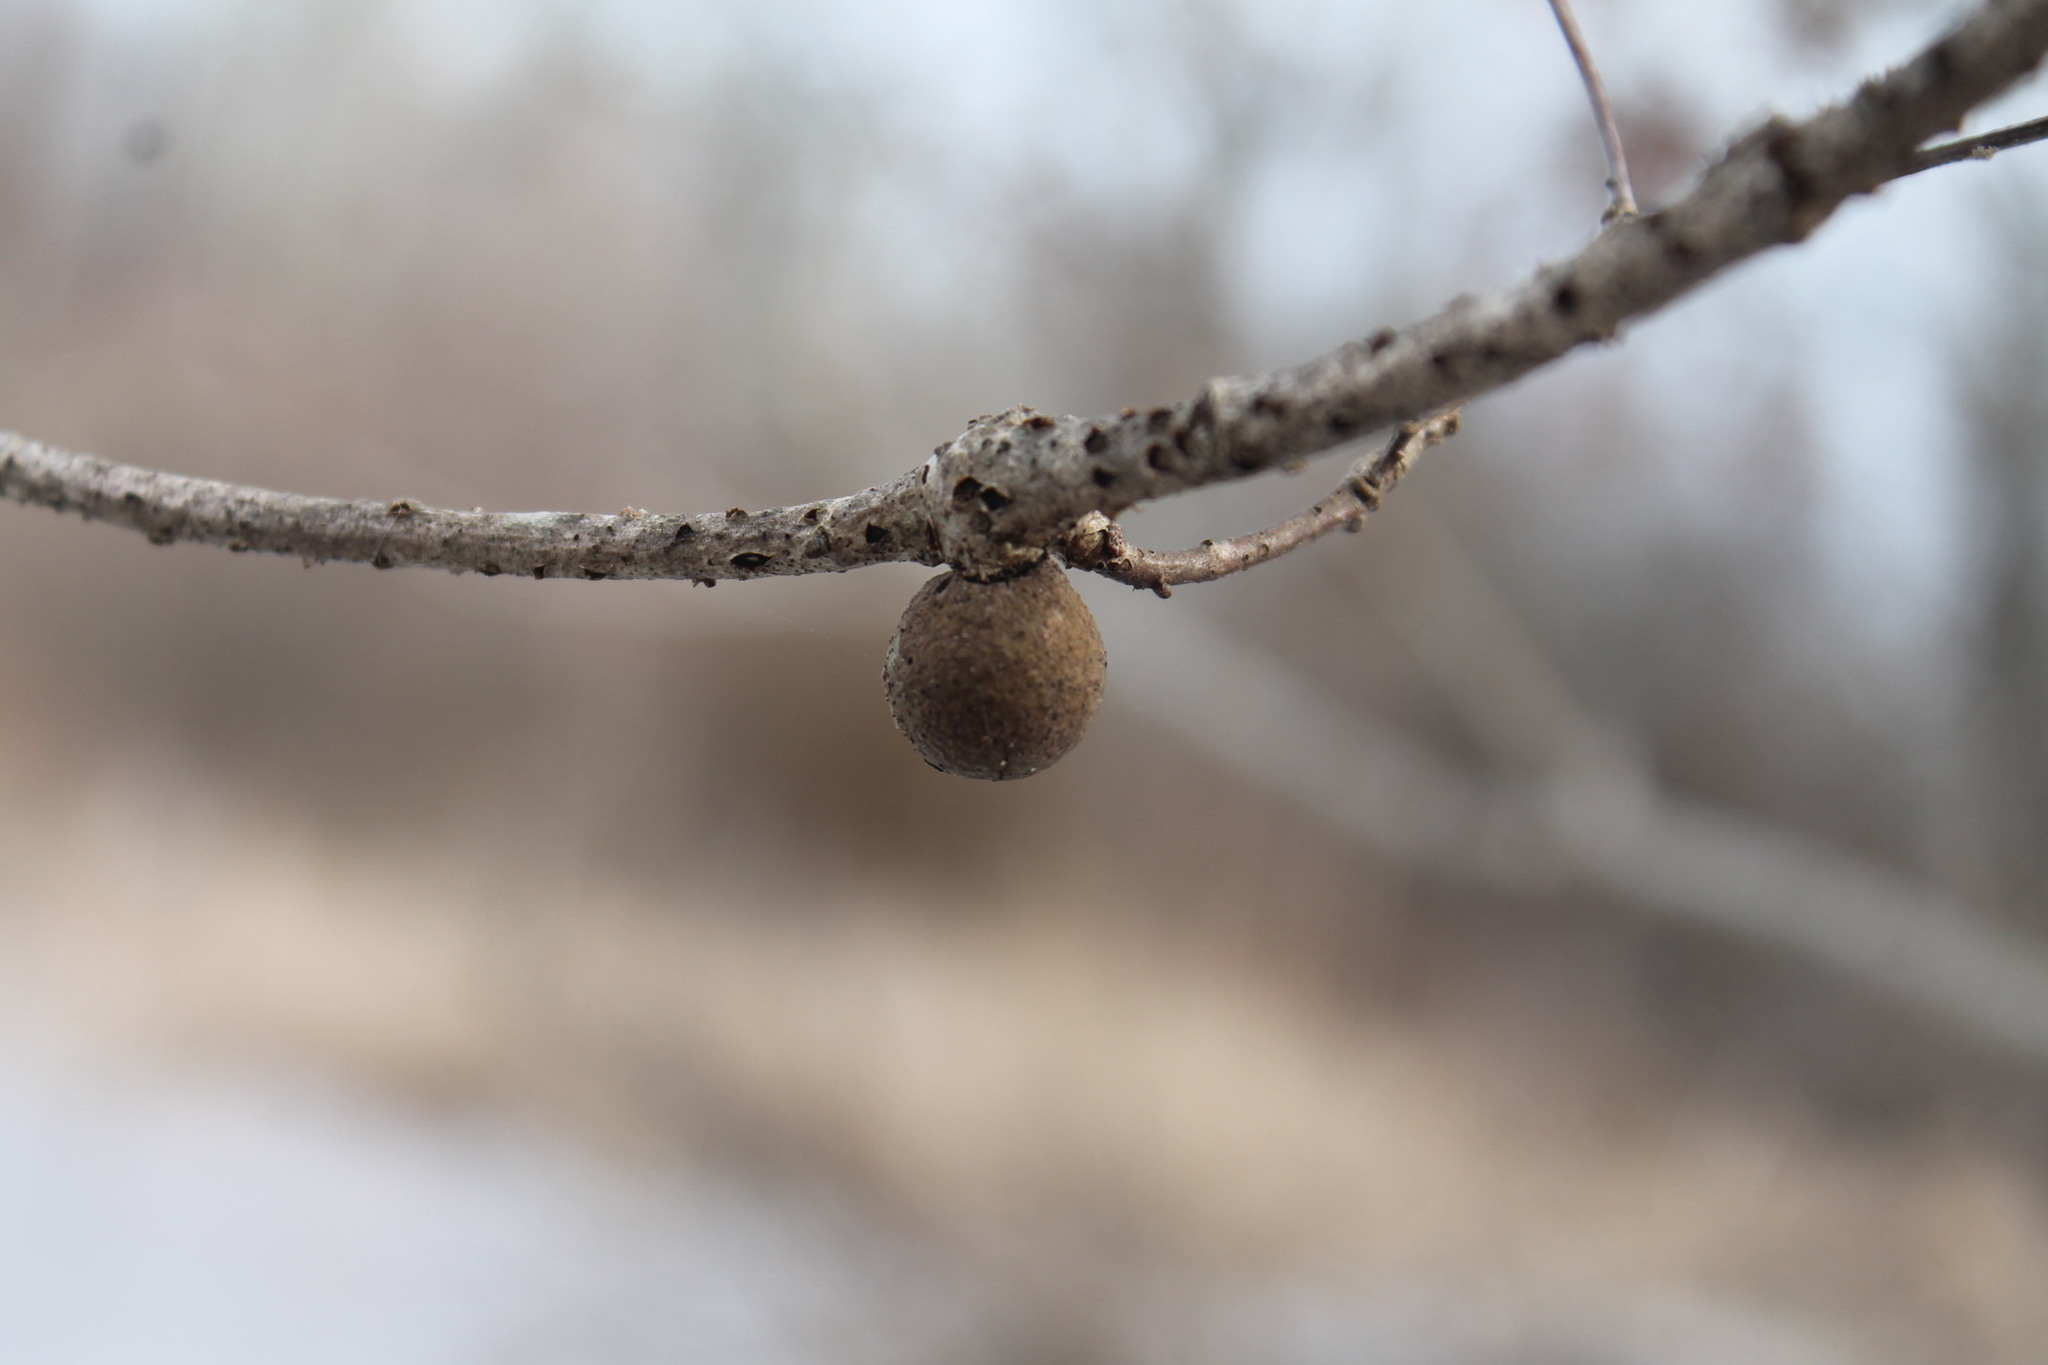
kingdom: Animalia
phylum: Arthropoda
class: Insecta
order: Hymenoptera
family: Cynipidae
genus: Disholcaspis
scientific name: Disholcaspis quercusglobulus
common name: Round bullet gall wasp
